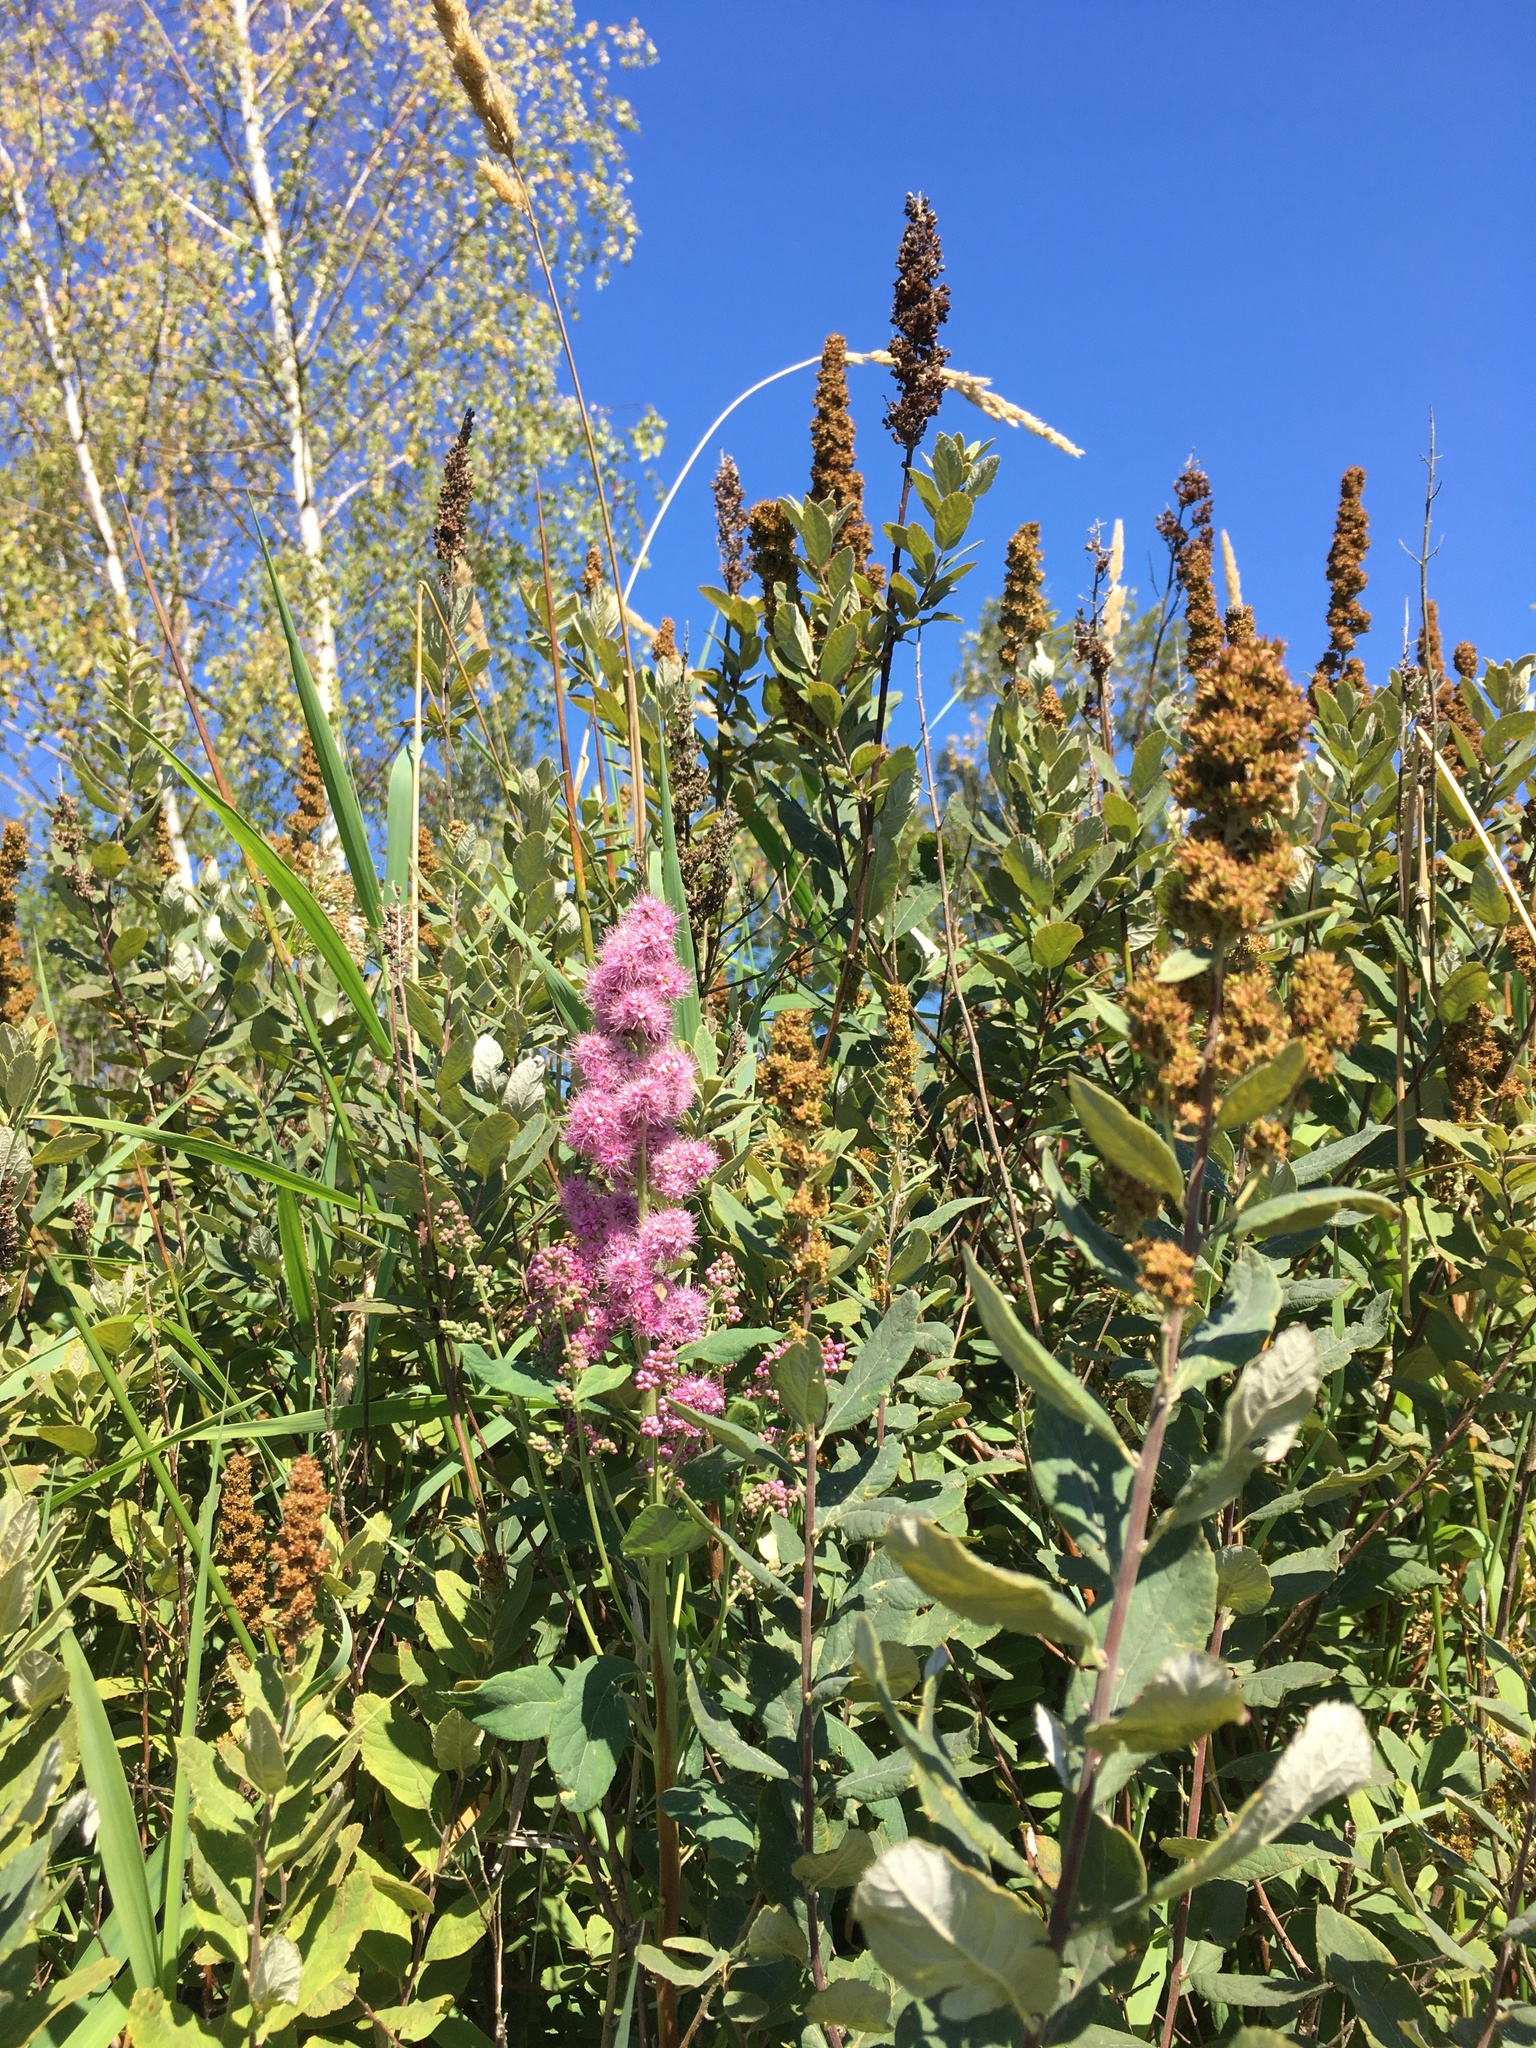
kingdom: Plantae
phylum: Tracheophyta
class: Magnoliopsida
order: Rosales
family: Rosaceae
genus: Spiraea
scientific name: Spiraea douglasii
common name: Steeplebush
